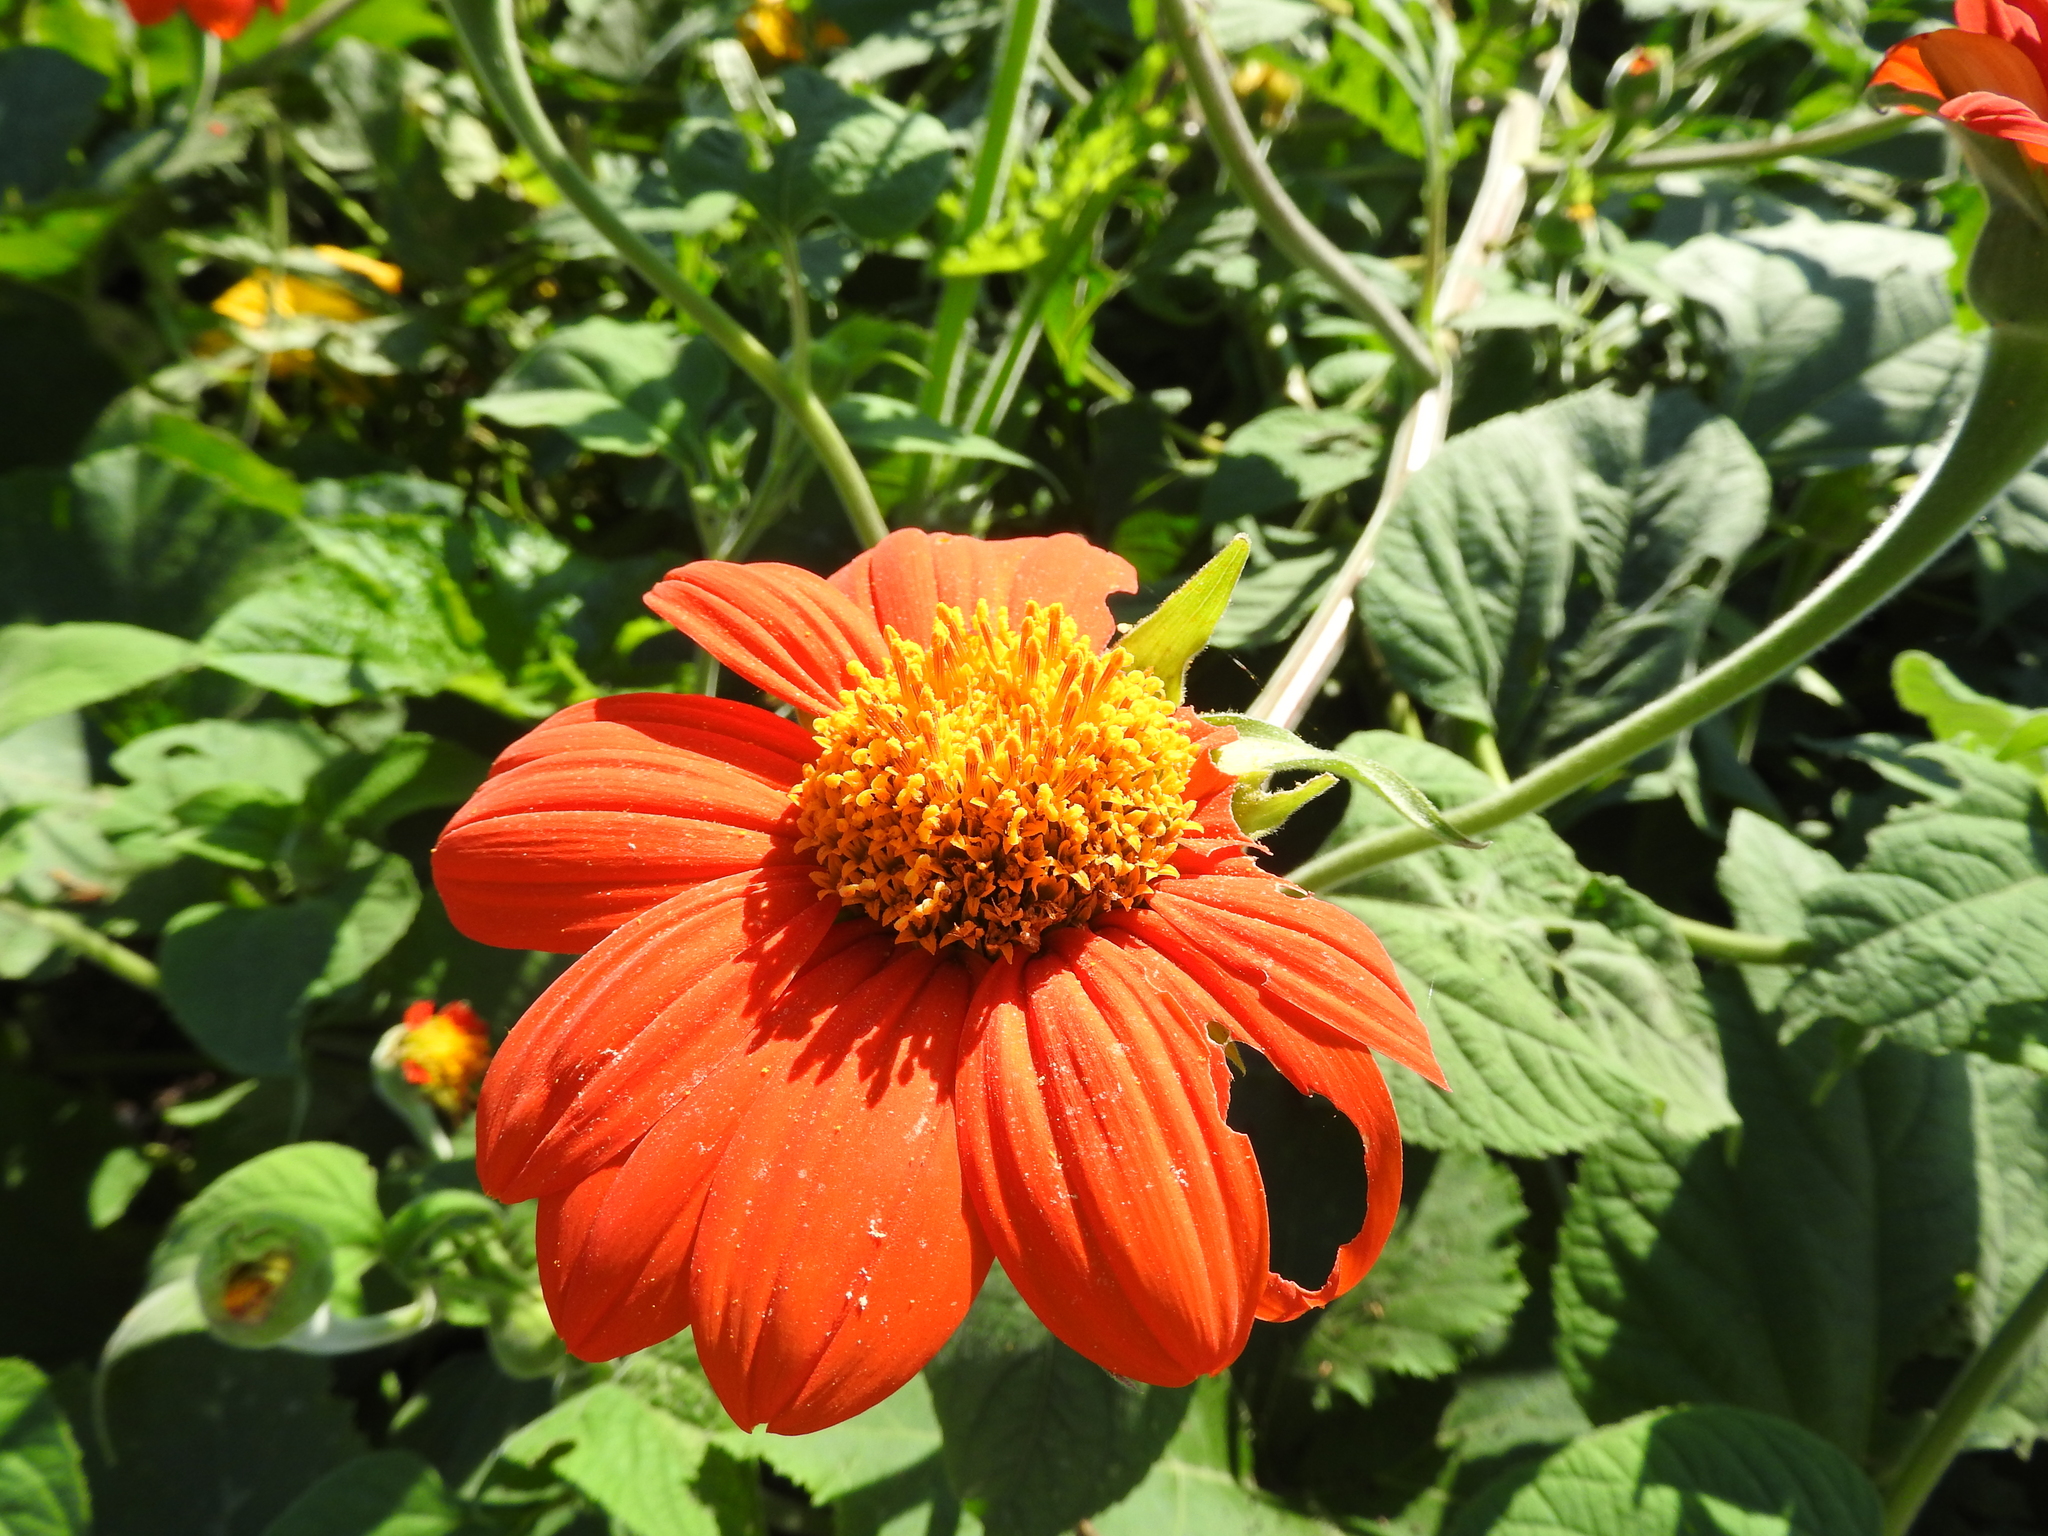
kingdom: Plantae
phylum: Tracheophyta
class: Magnoliopsida
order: Asterales
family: Asteraceae
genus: Tithonia
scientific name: Tithonia rotundifolia
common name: Sunflower
